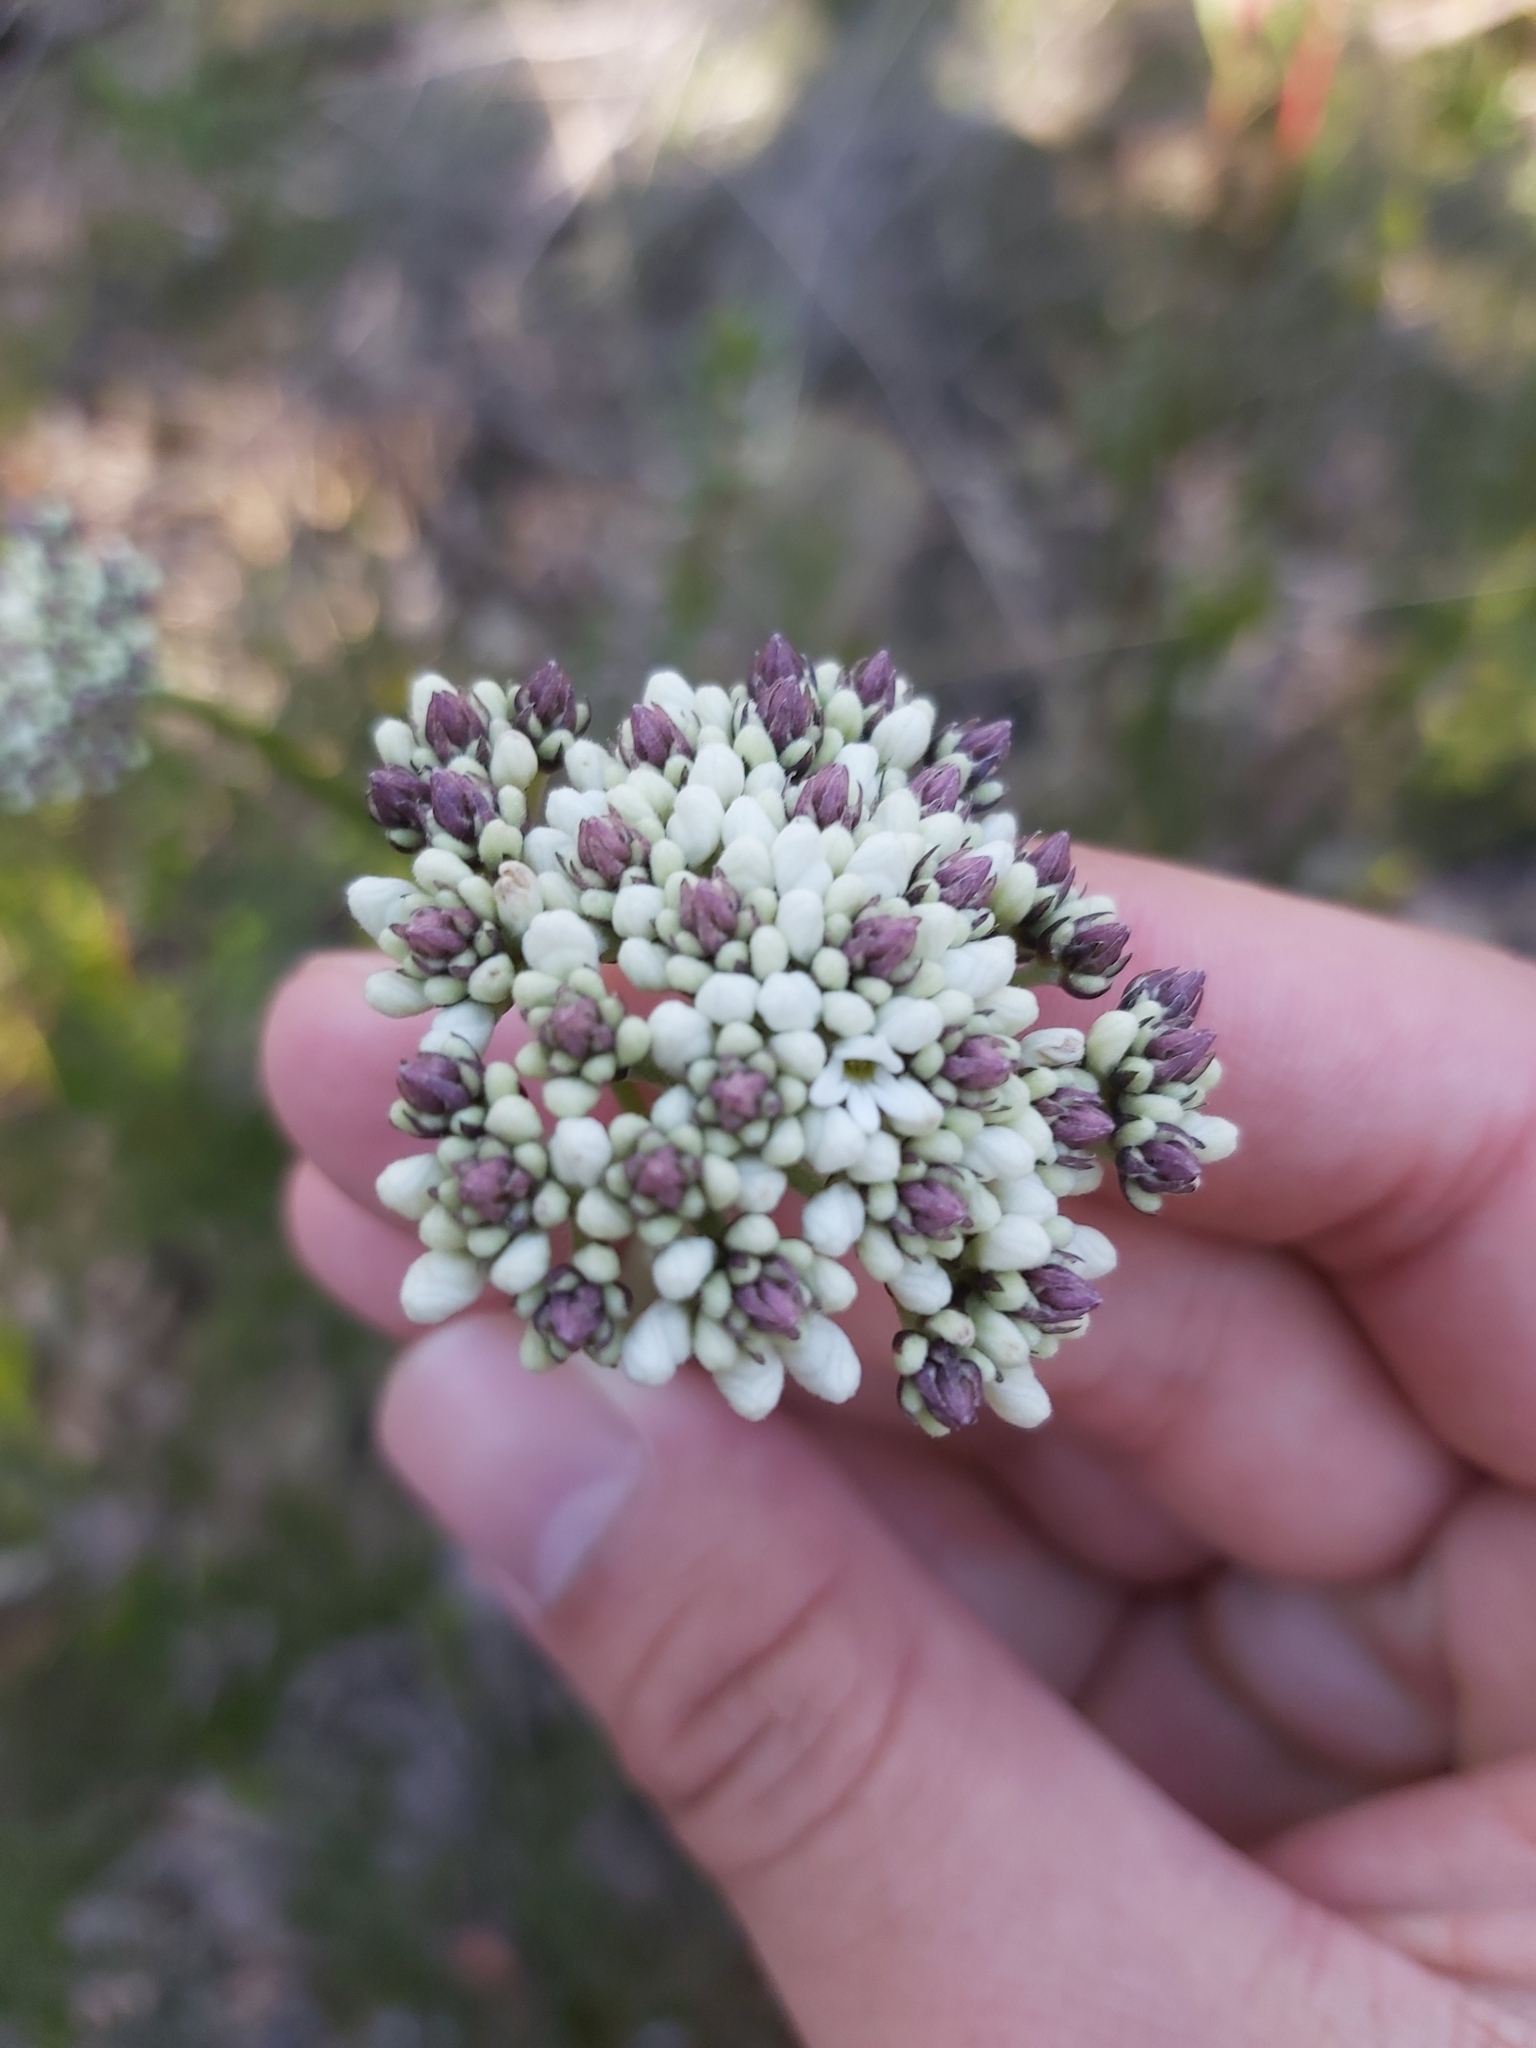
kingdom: Plantae
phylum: Tracheophyta
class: Magnoliopsida
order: Proteales
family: Proteaceae
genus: Conospermum
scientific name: Conospermum longifolium
